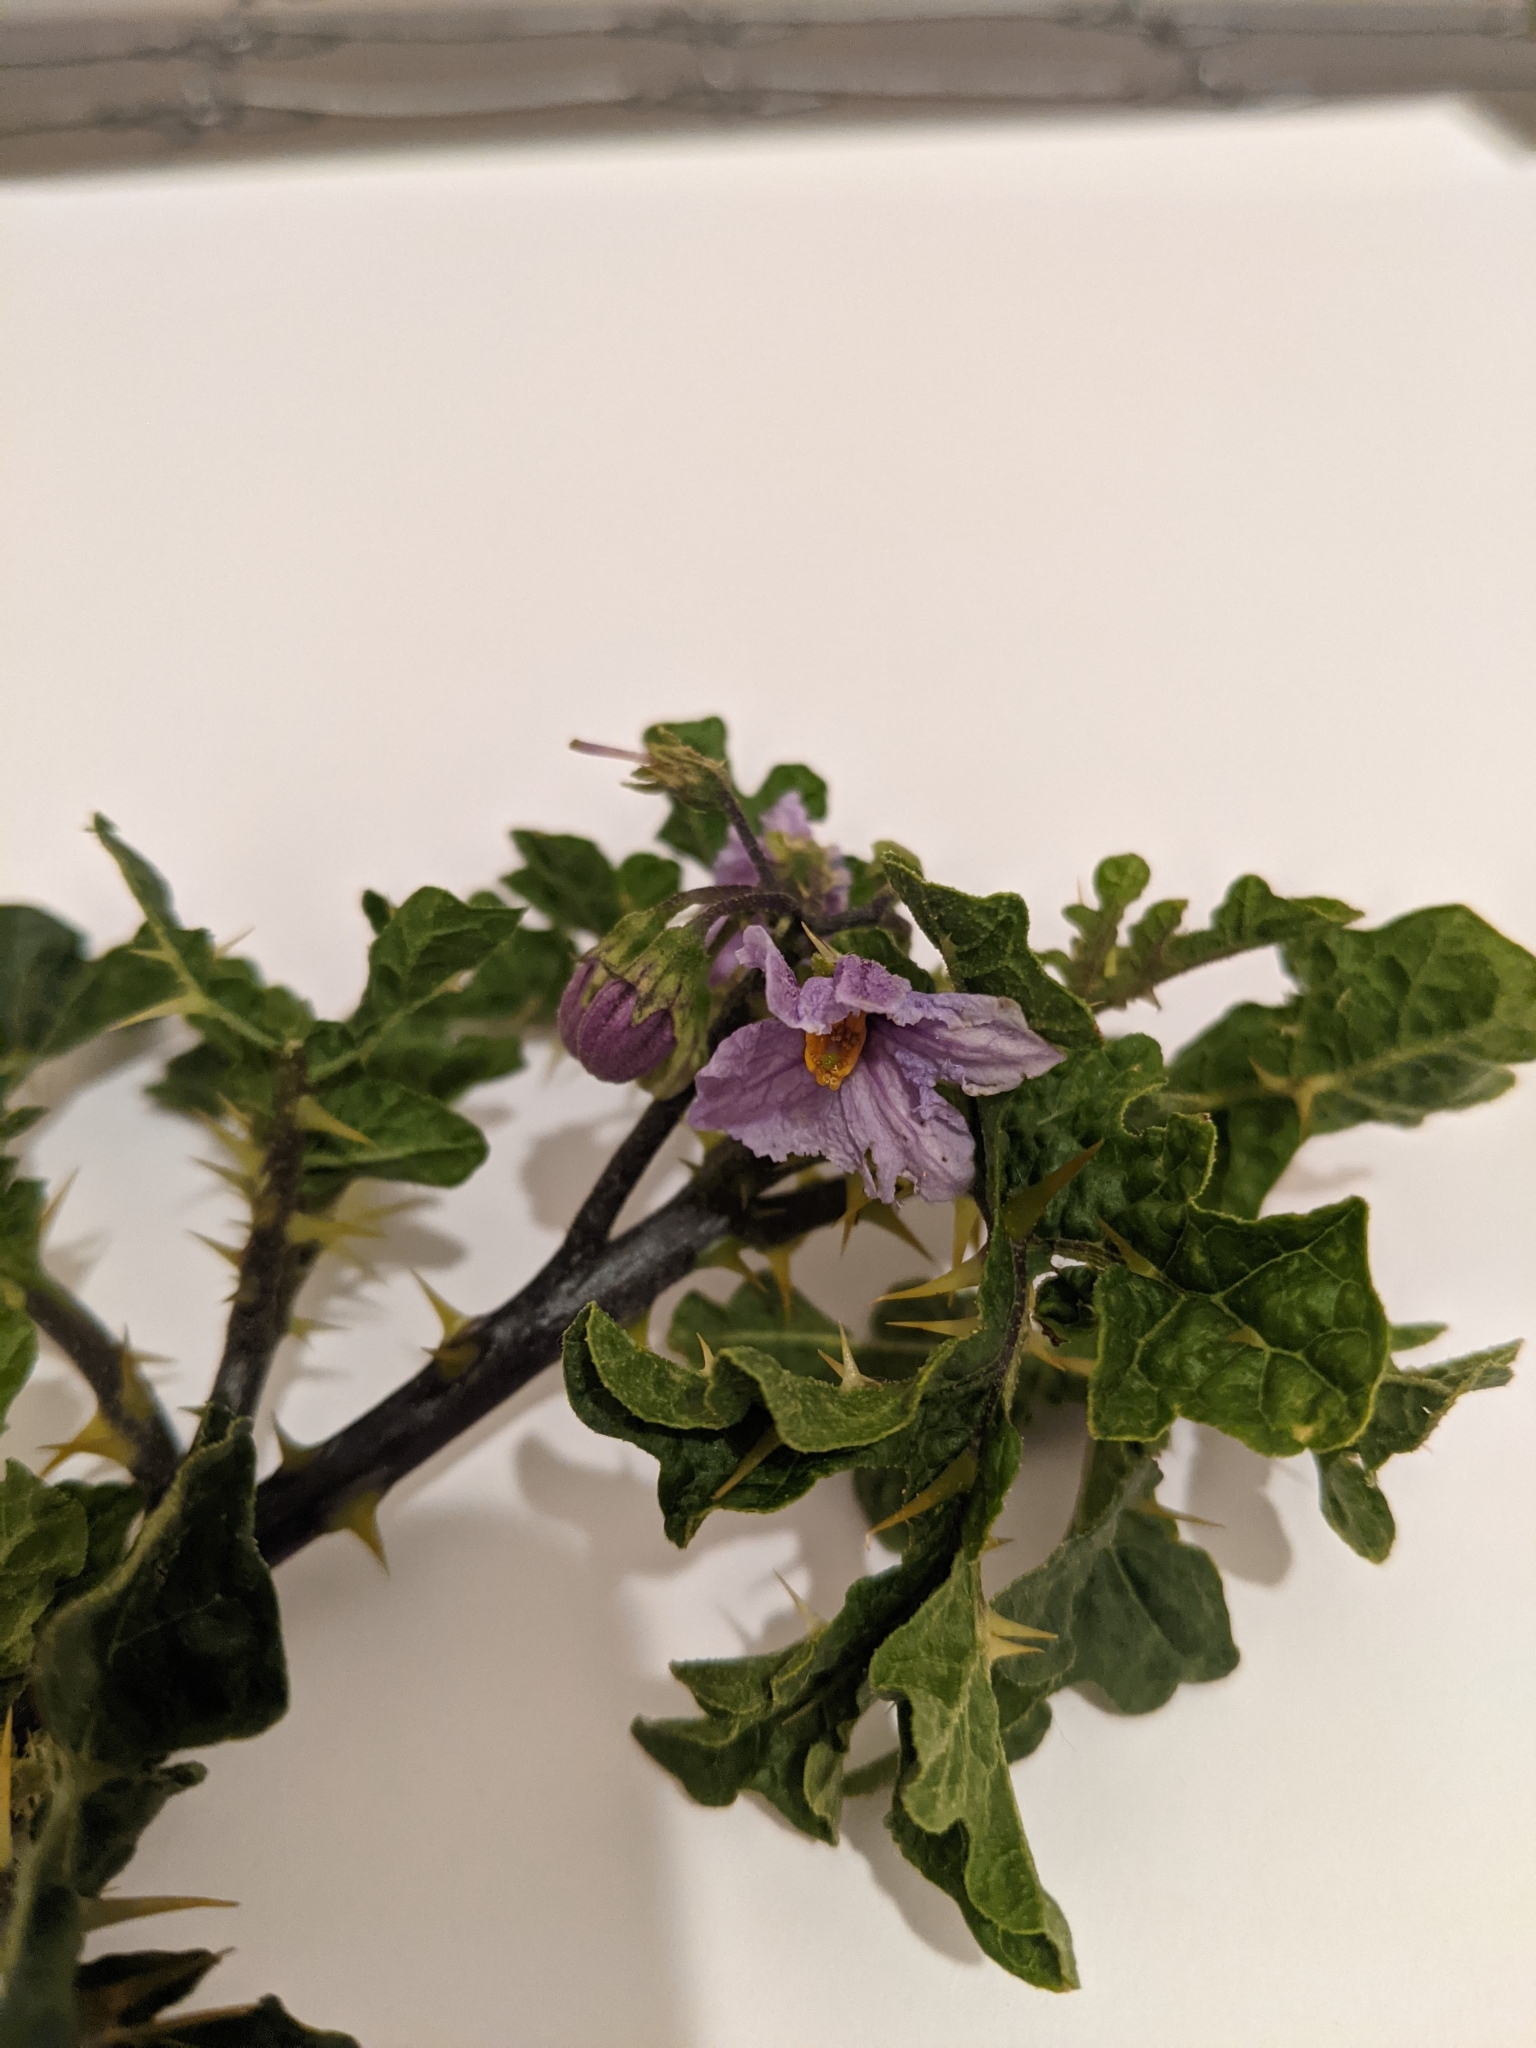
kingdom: Plantae
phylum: Tracheophyta
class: Magnoliopsida
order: Solanales
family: Solanaceae
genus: Solanum
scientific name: Solanum linnaeanum
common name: Nightshade
